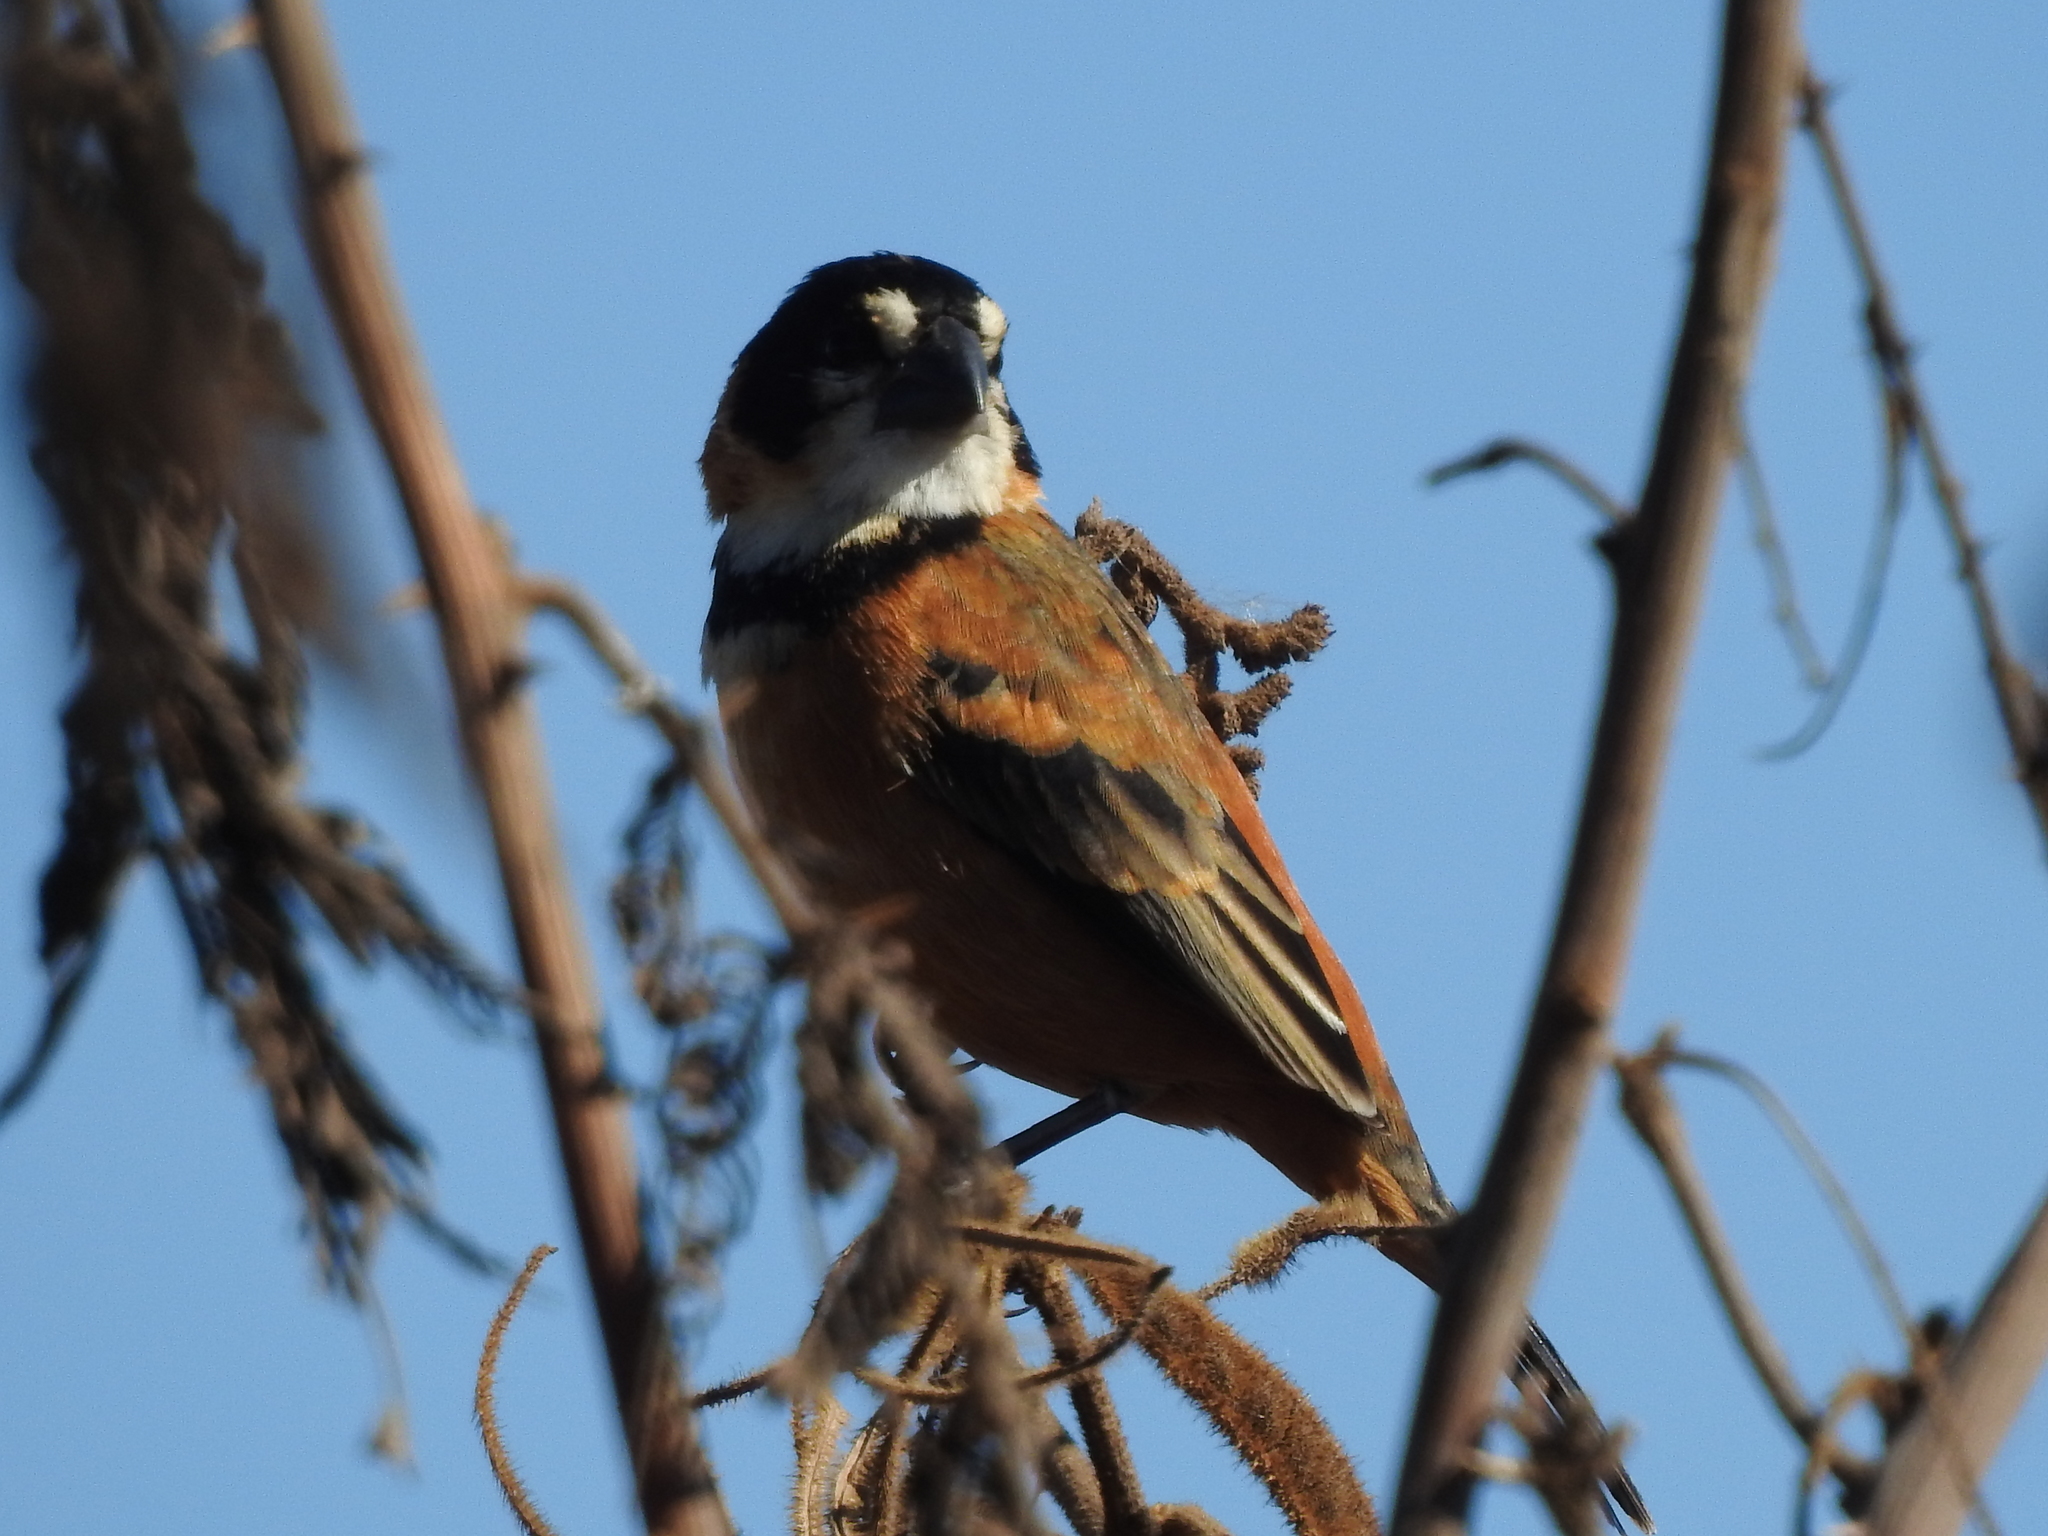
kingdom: Animalia
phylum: Chordata
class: Aves
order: Passeriformes
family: Thraupidae
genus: Sporophila
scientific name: Sporophila collaris
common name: Rusty-collared seedeater
